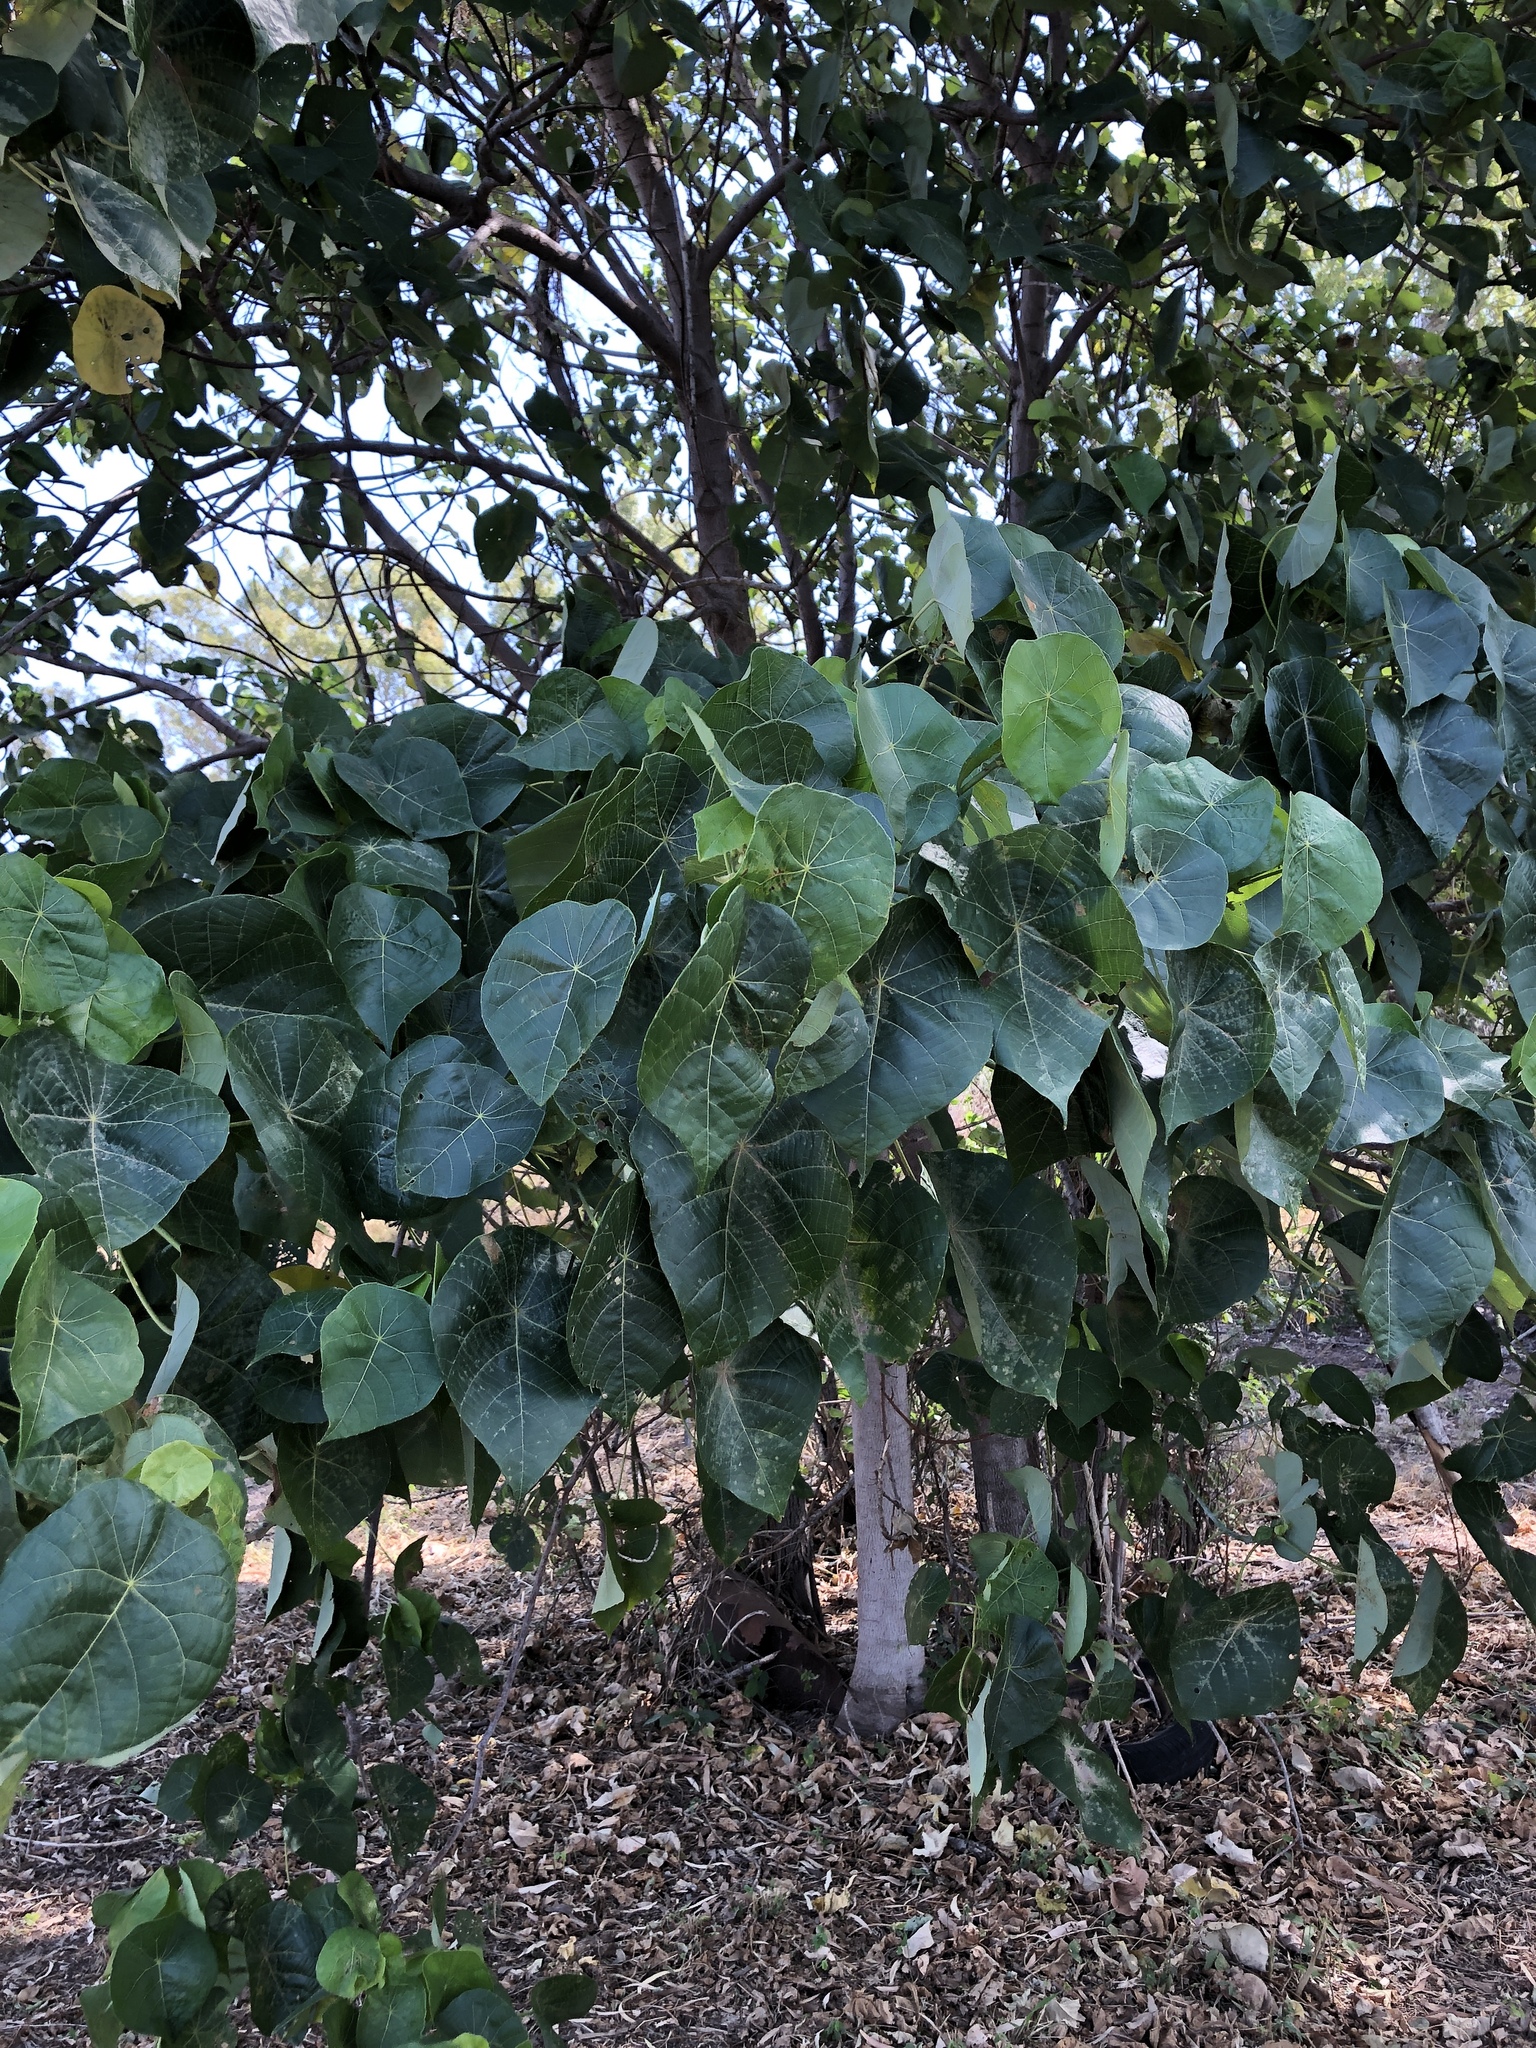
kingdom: Plantae
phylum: Tracheophyta
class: Magnoliopsida
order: Malpighiales
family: Euphorbiaceae
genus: Macaranga
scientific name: Macaranga tanarius
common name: Parasol leaf tree
